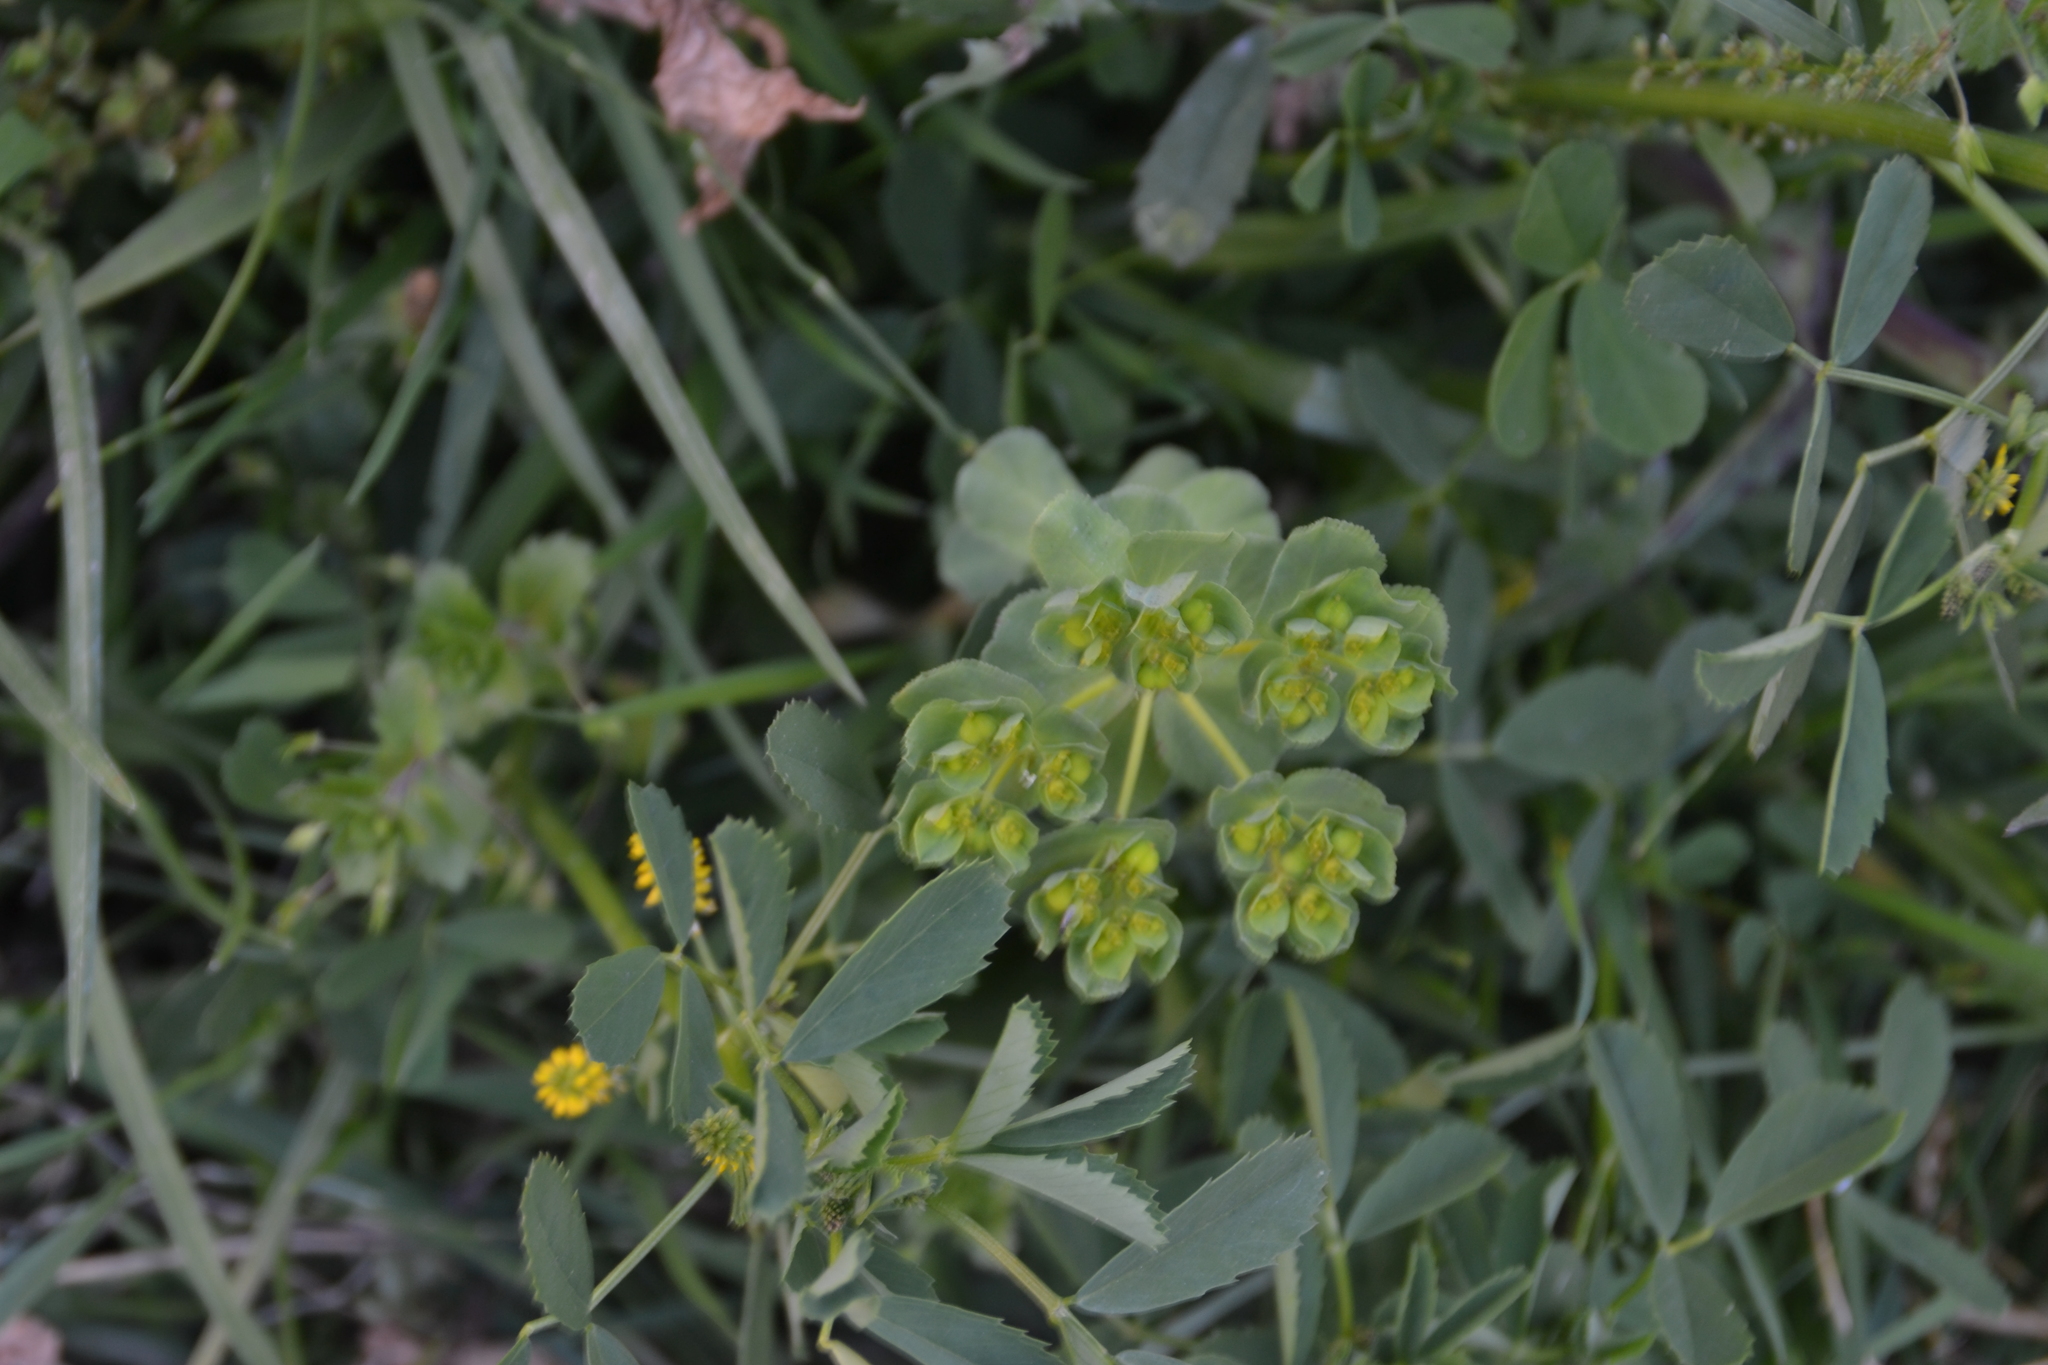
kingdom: Plantae
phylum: Tracheophyta
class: Magnoliopsida
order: Malpighiales
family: Euphorbiaceae
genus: Euphorbia
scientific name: Euphorbia helioscopia
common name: Sun spurge
